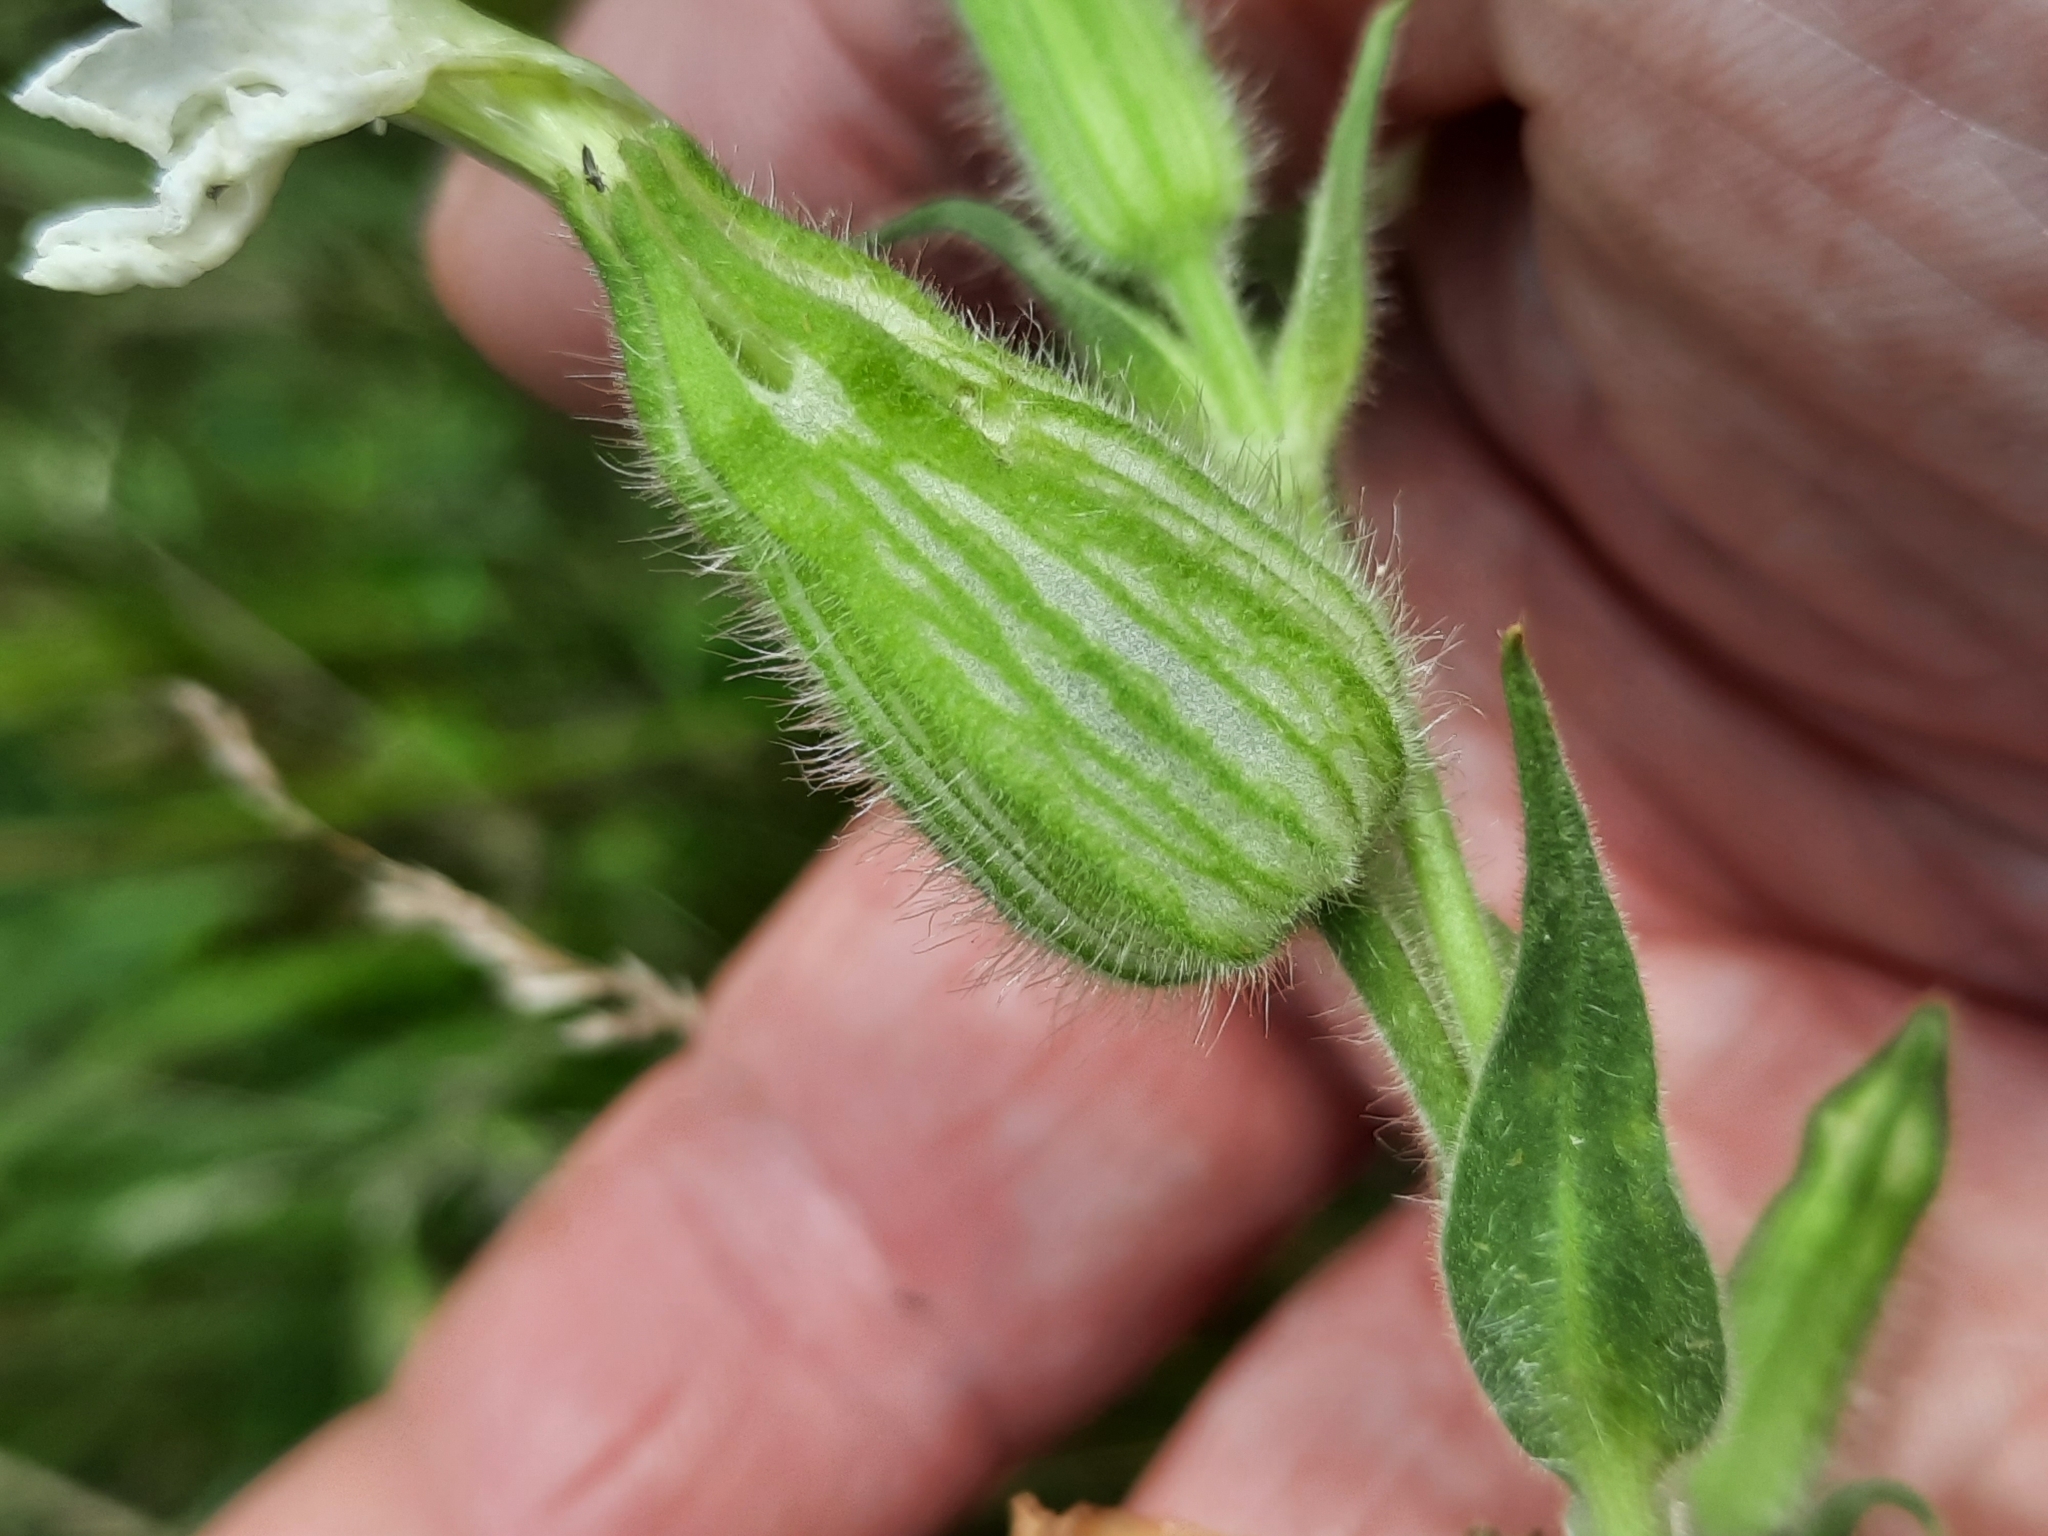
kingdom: Plantae
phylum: Tracheophyta
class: Magnoliopsida
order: Caryophyllales
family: Caryophyllaceae
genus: Silene
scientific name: Silene latifolia
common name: White campion
